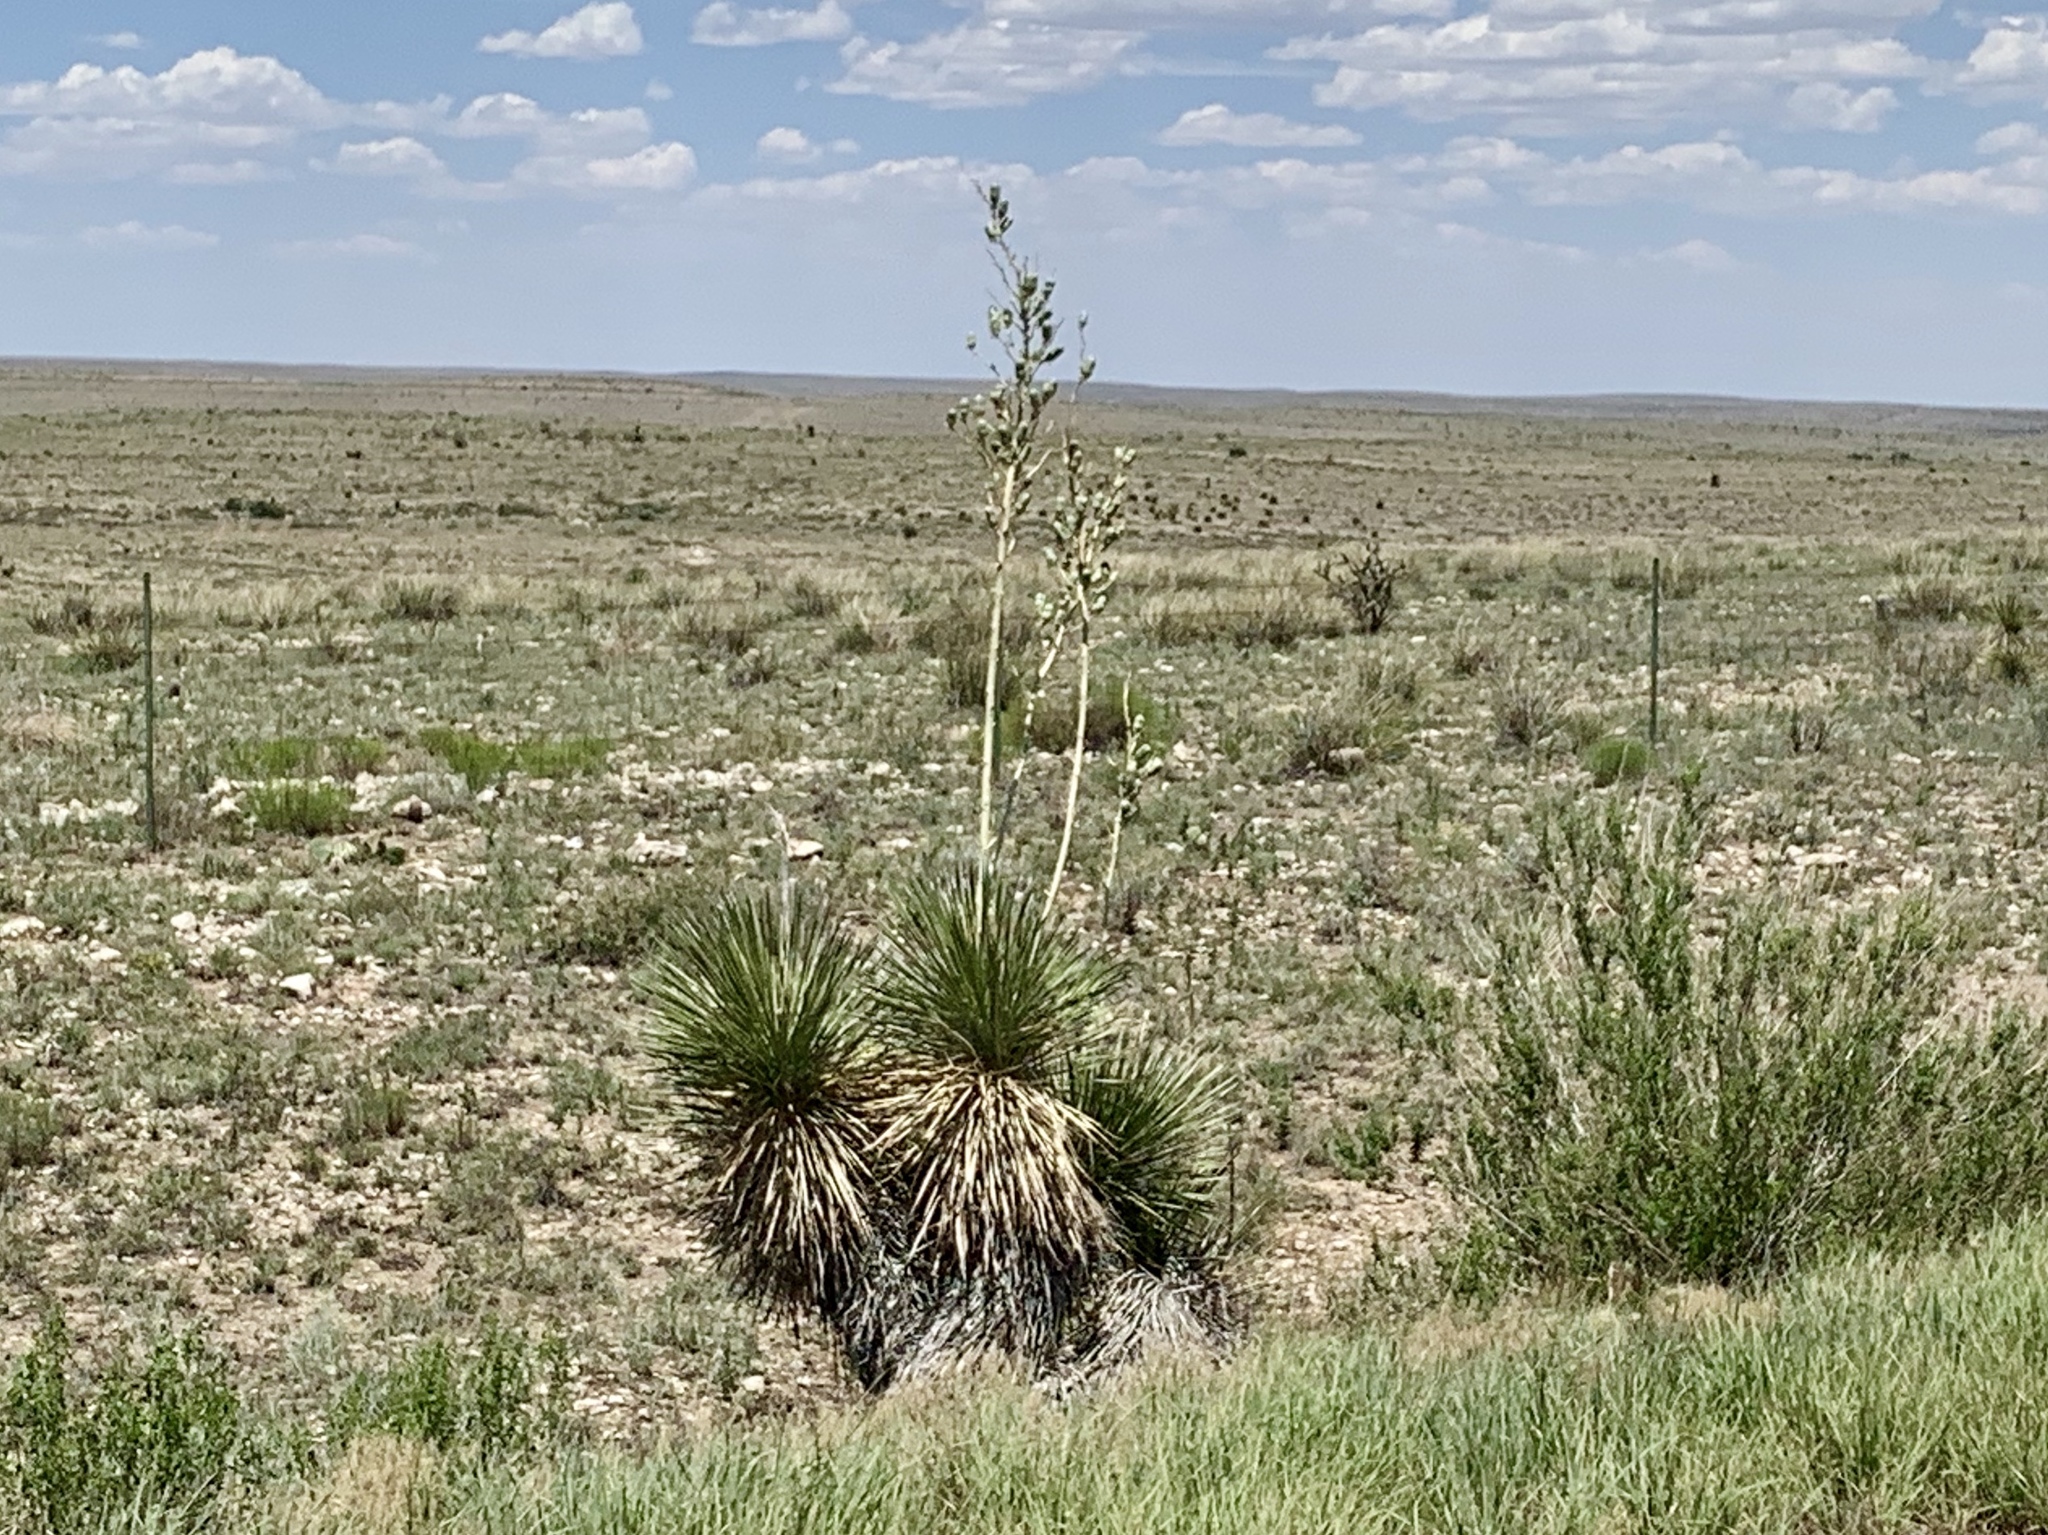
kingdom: Plantae
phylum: Tracheophyta
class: Liliopsida
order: Asparagales
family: Asparagaceae
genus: Yucca
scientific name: Yucca elata
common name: Palmella
